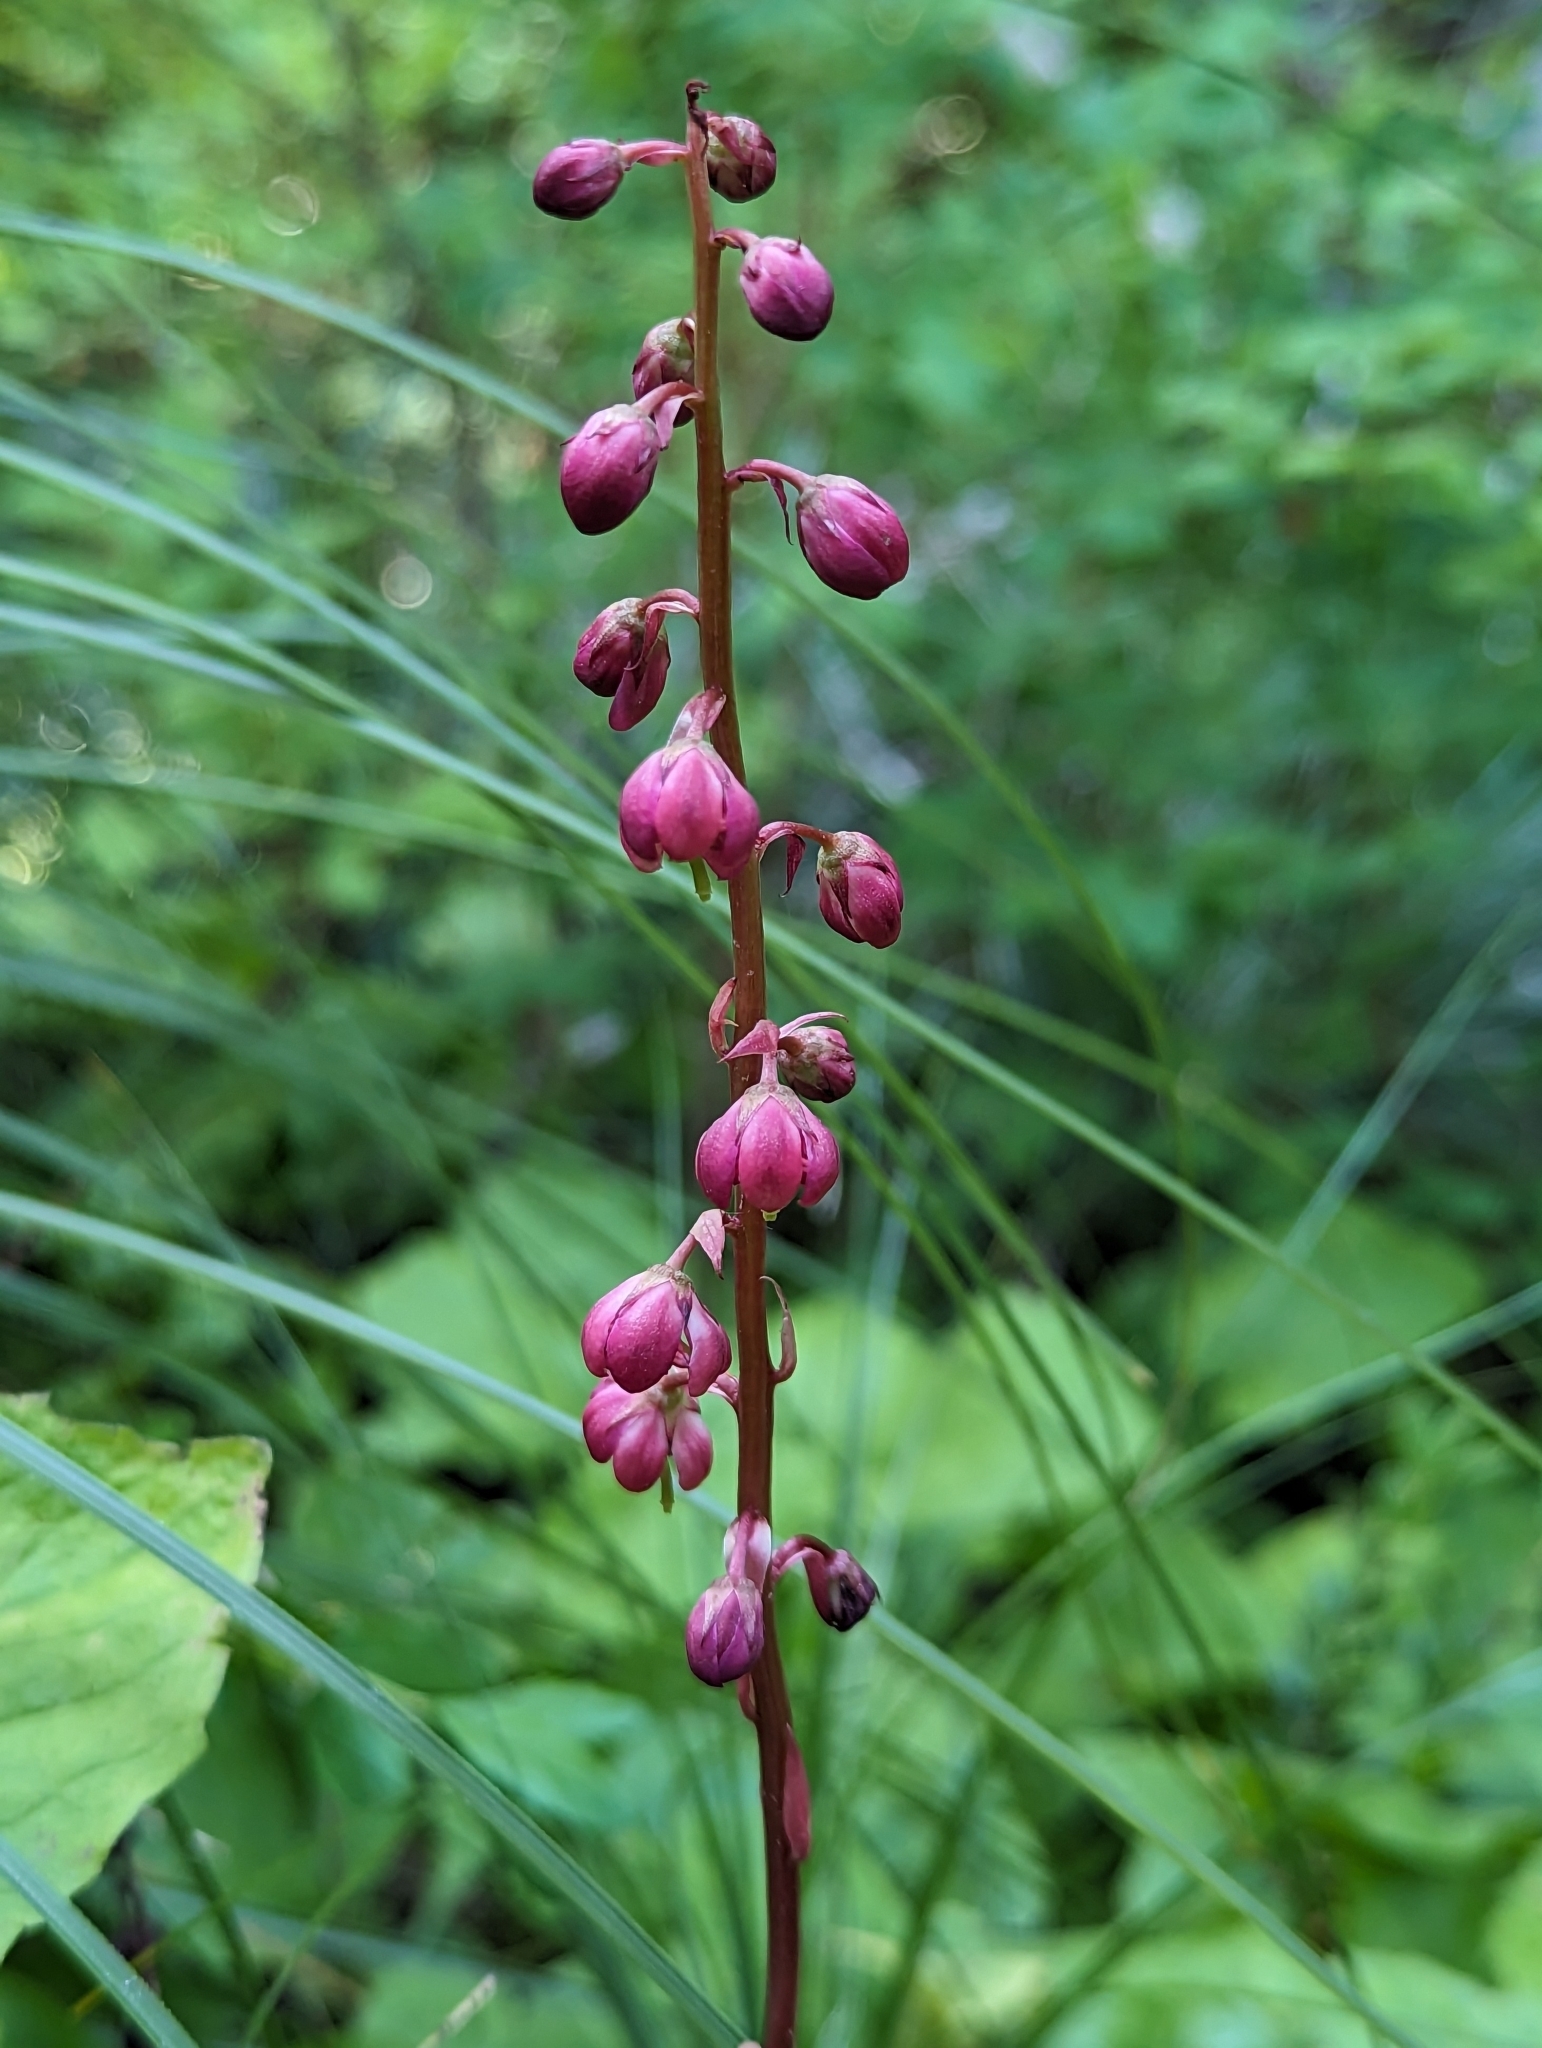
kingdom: Plantae
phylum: Tracheophyta
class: Magnoliopsida
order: Ericales
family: Ericaceae
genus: Pyrola
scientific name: Pyrola asarifolia
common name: Bog wintergreen
